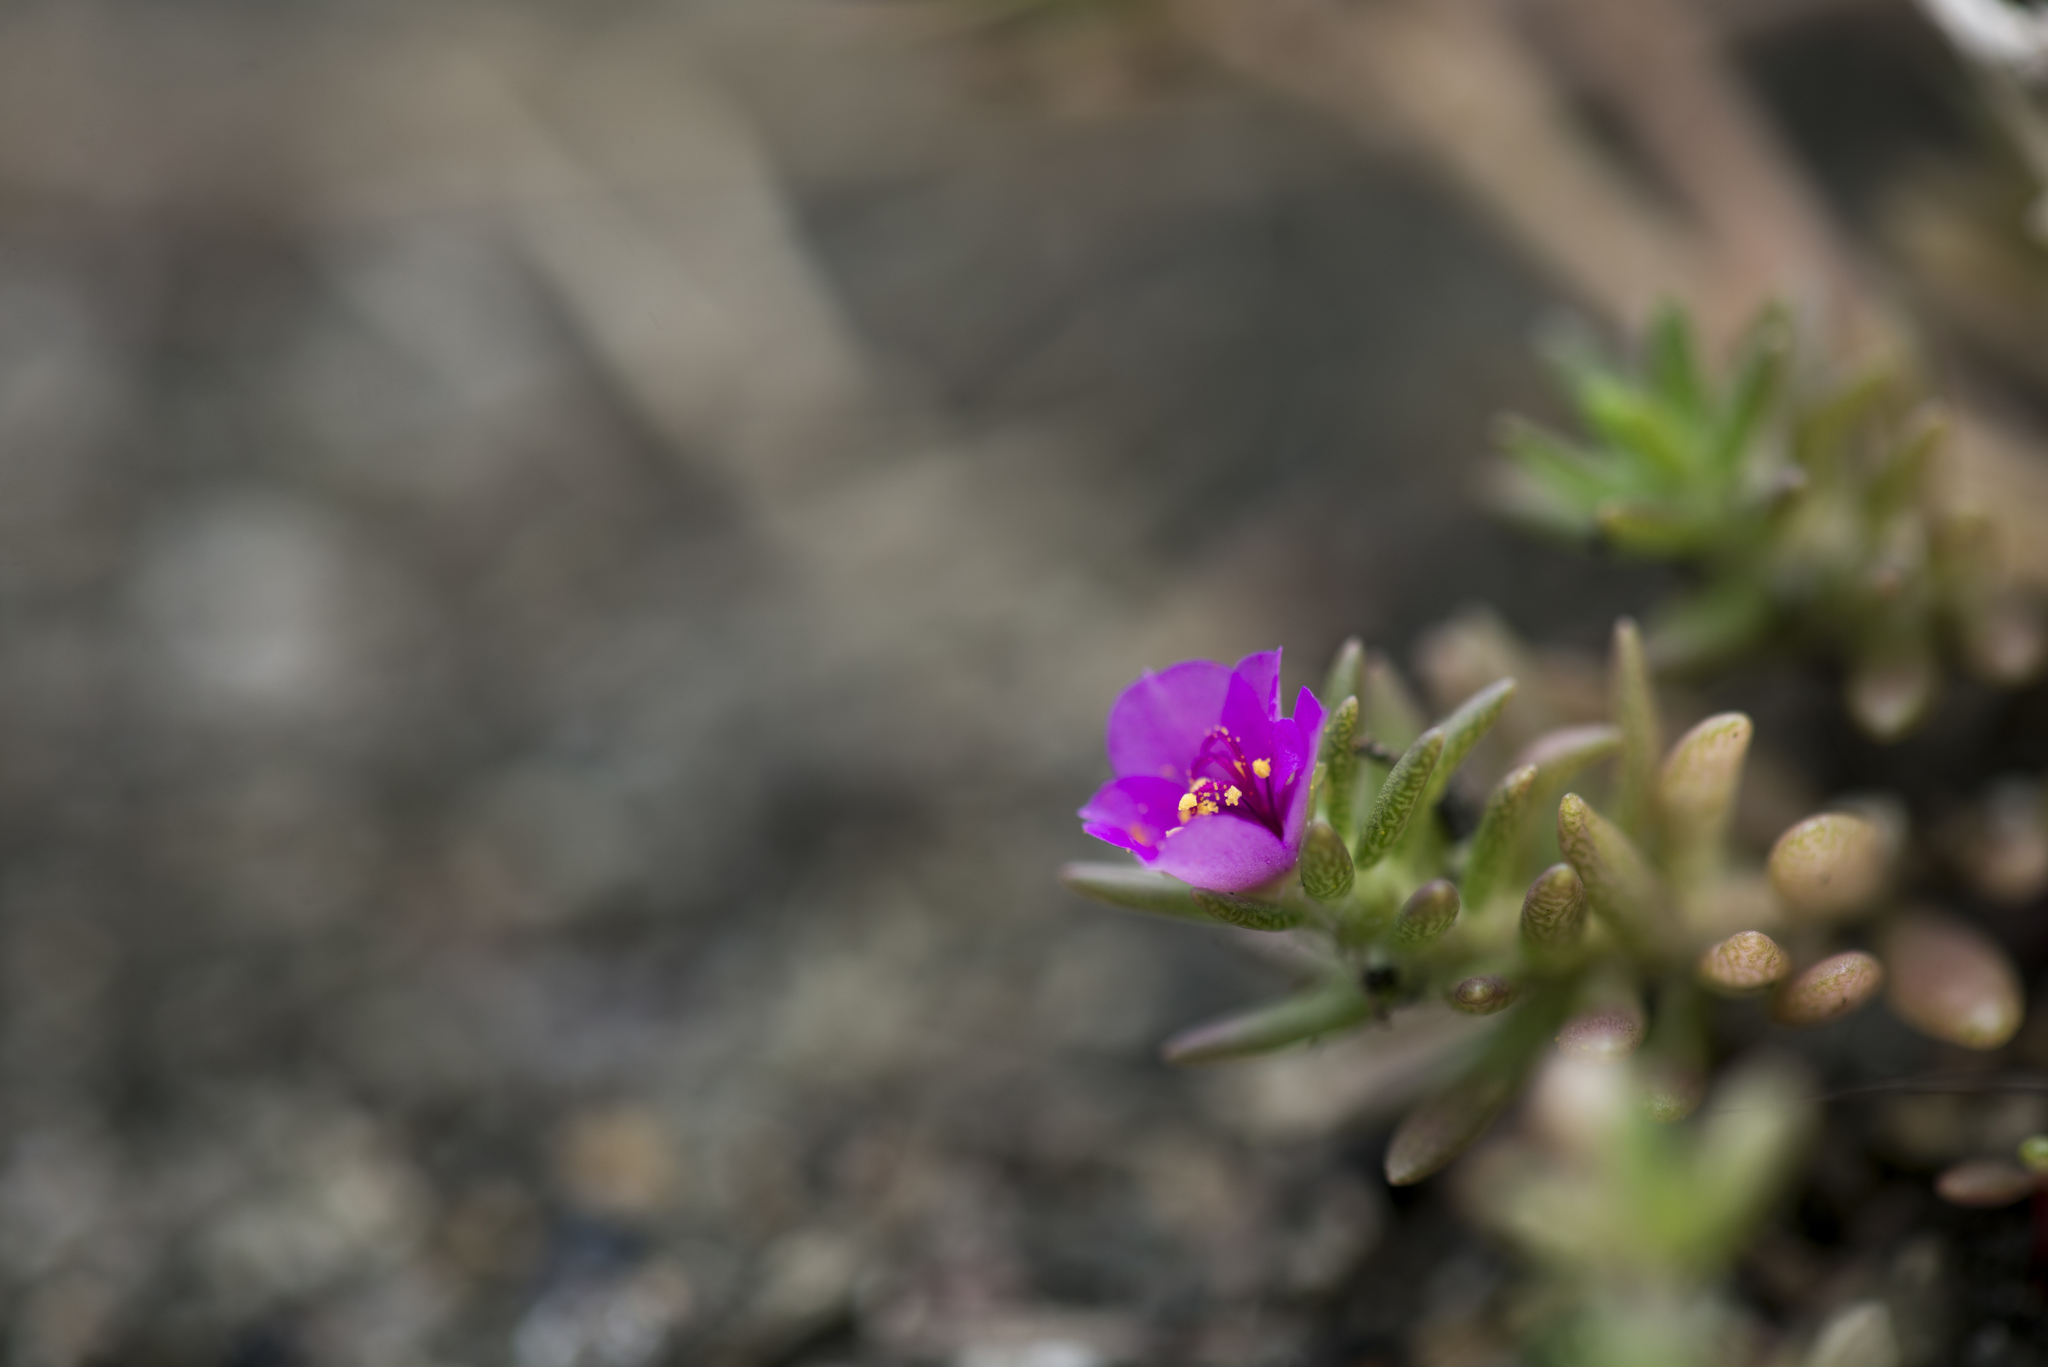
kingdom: Plantae
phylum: Tracheophyta
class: Magnoliopsida
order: Caryophyllales
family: Portulacaceae
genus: Portulaca
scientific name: Portulaca pilosa
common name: Kiss me quick
